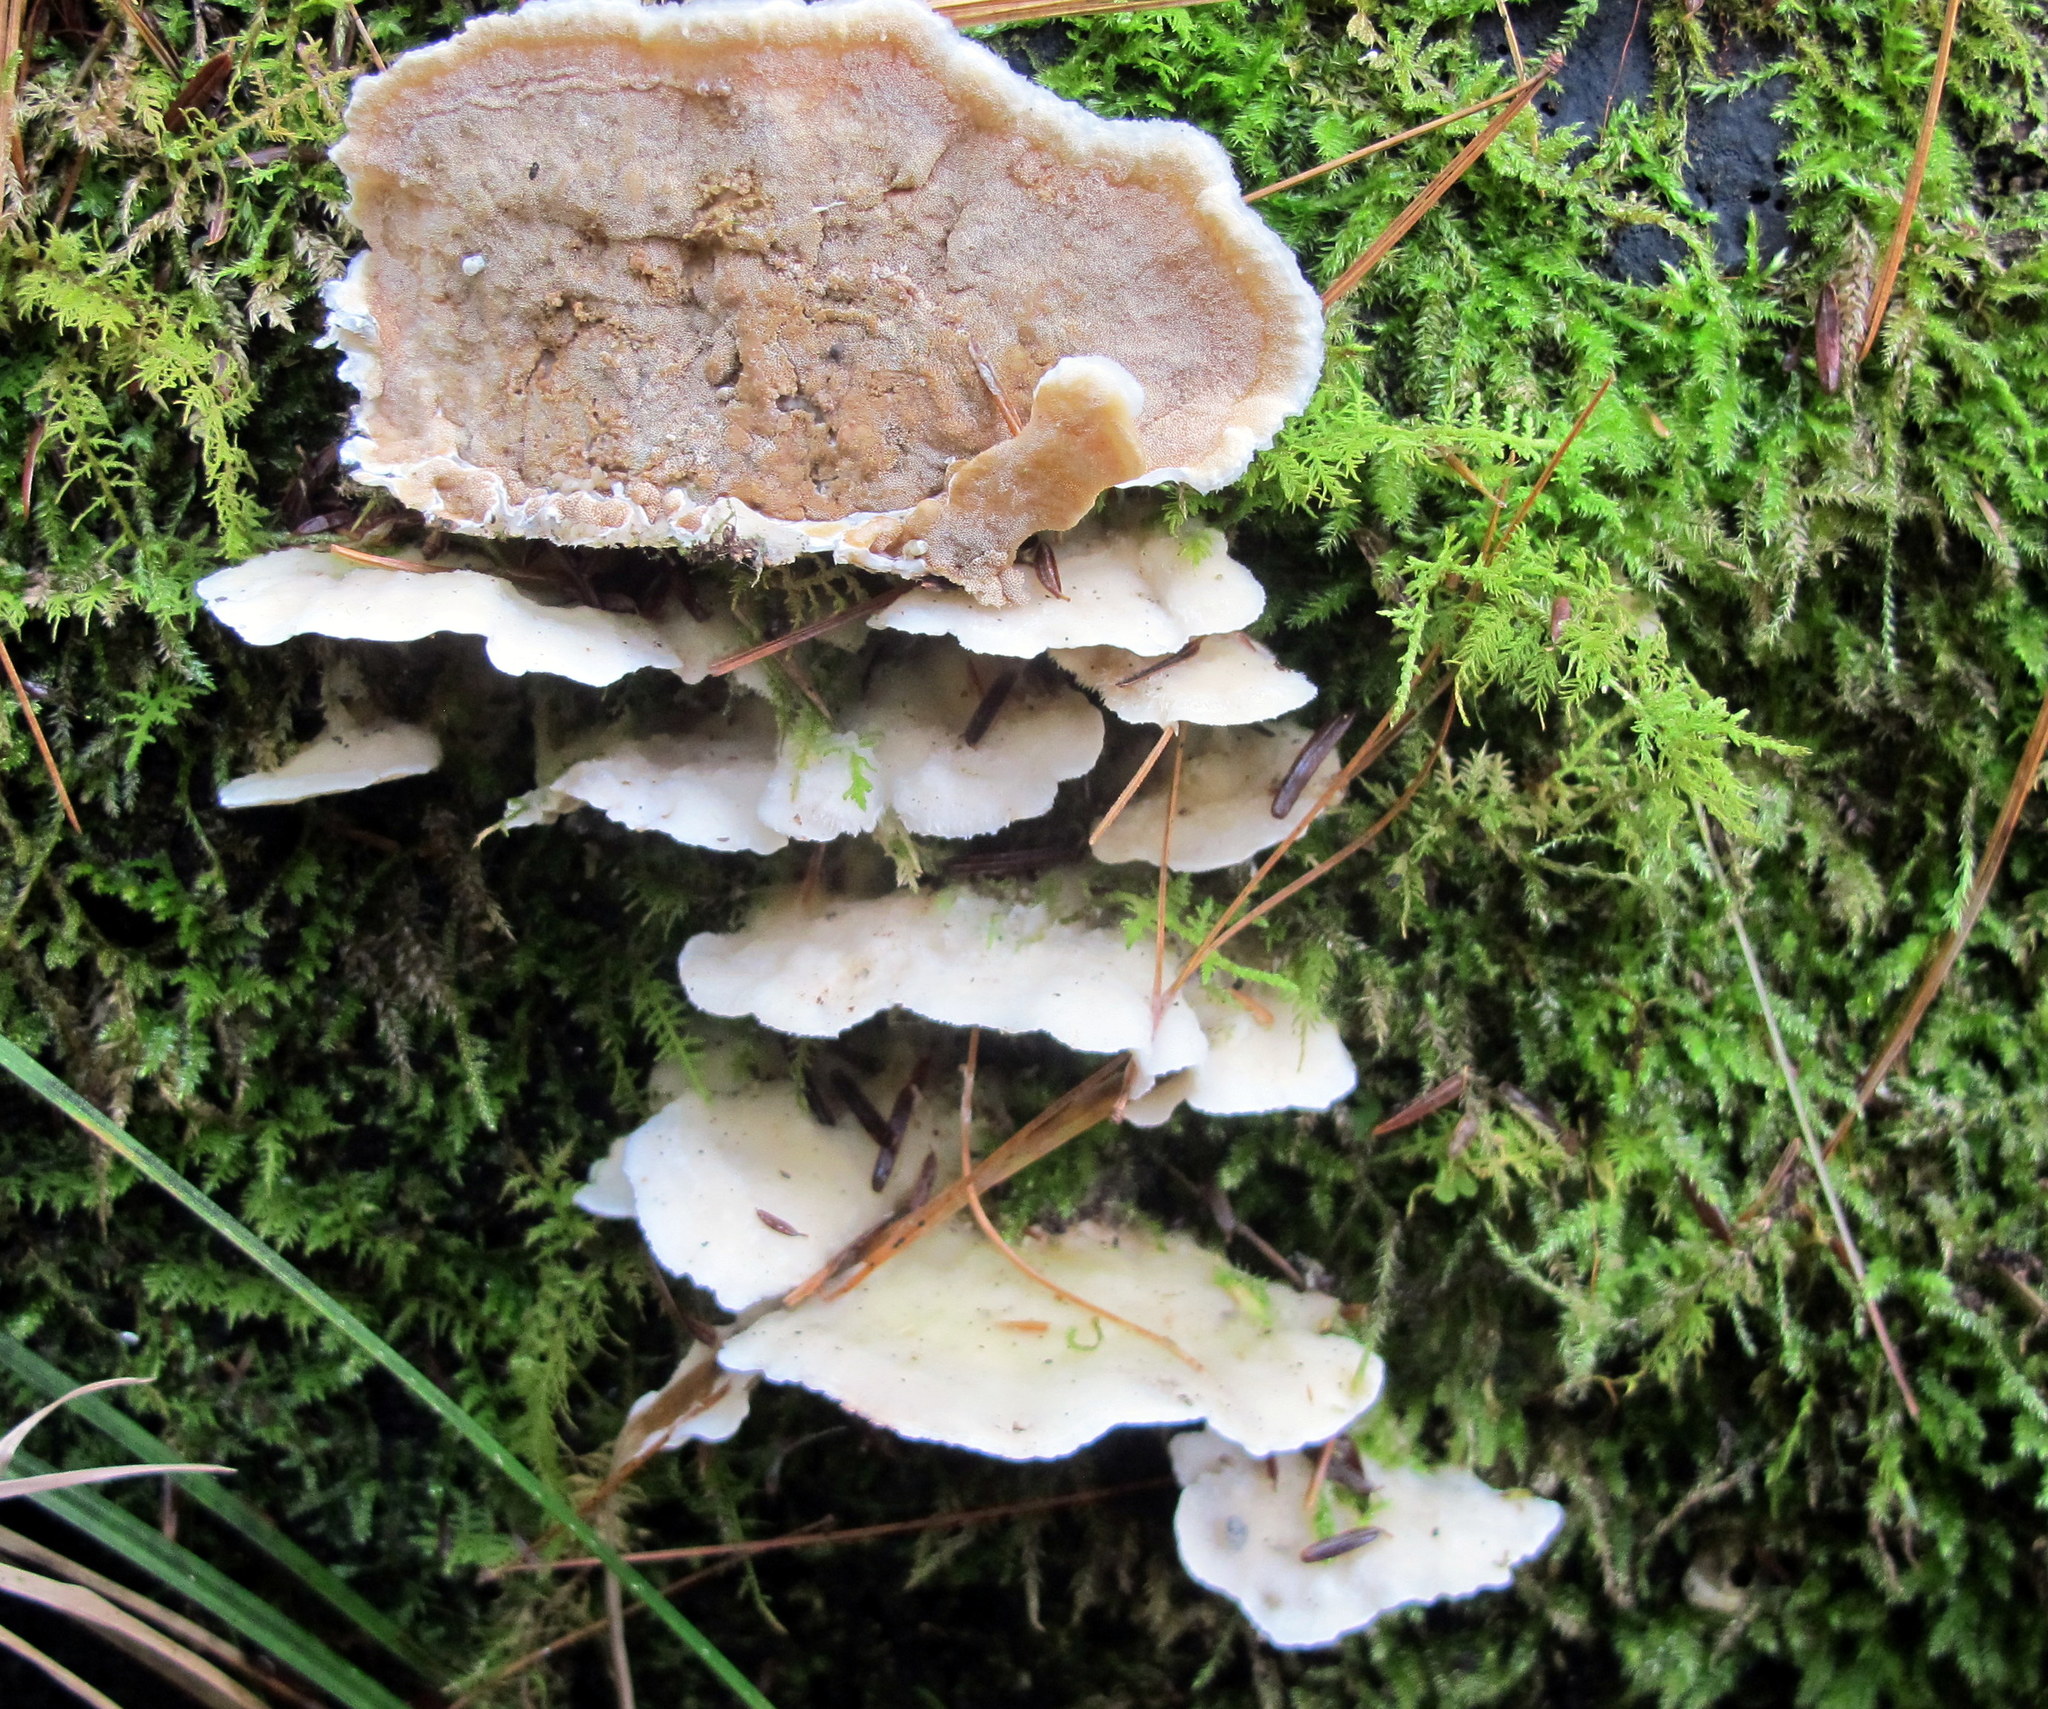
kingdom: Fungi
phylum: Basidiomycota
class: Agaricomycetes
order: Polyporales
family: Irpicaceae
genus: Vitreoporus
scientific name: Vitreoporus dichrous
